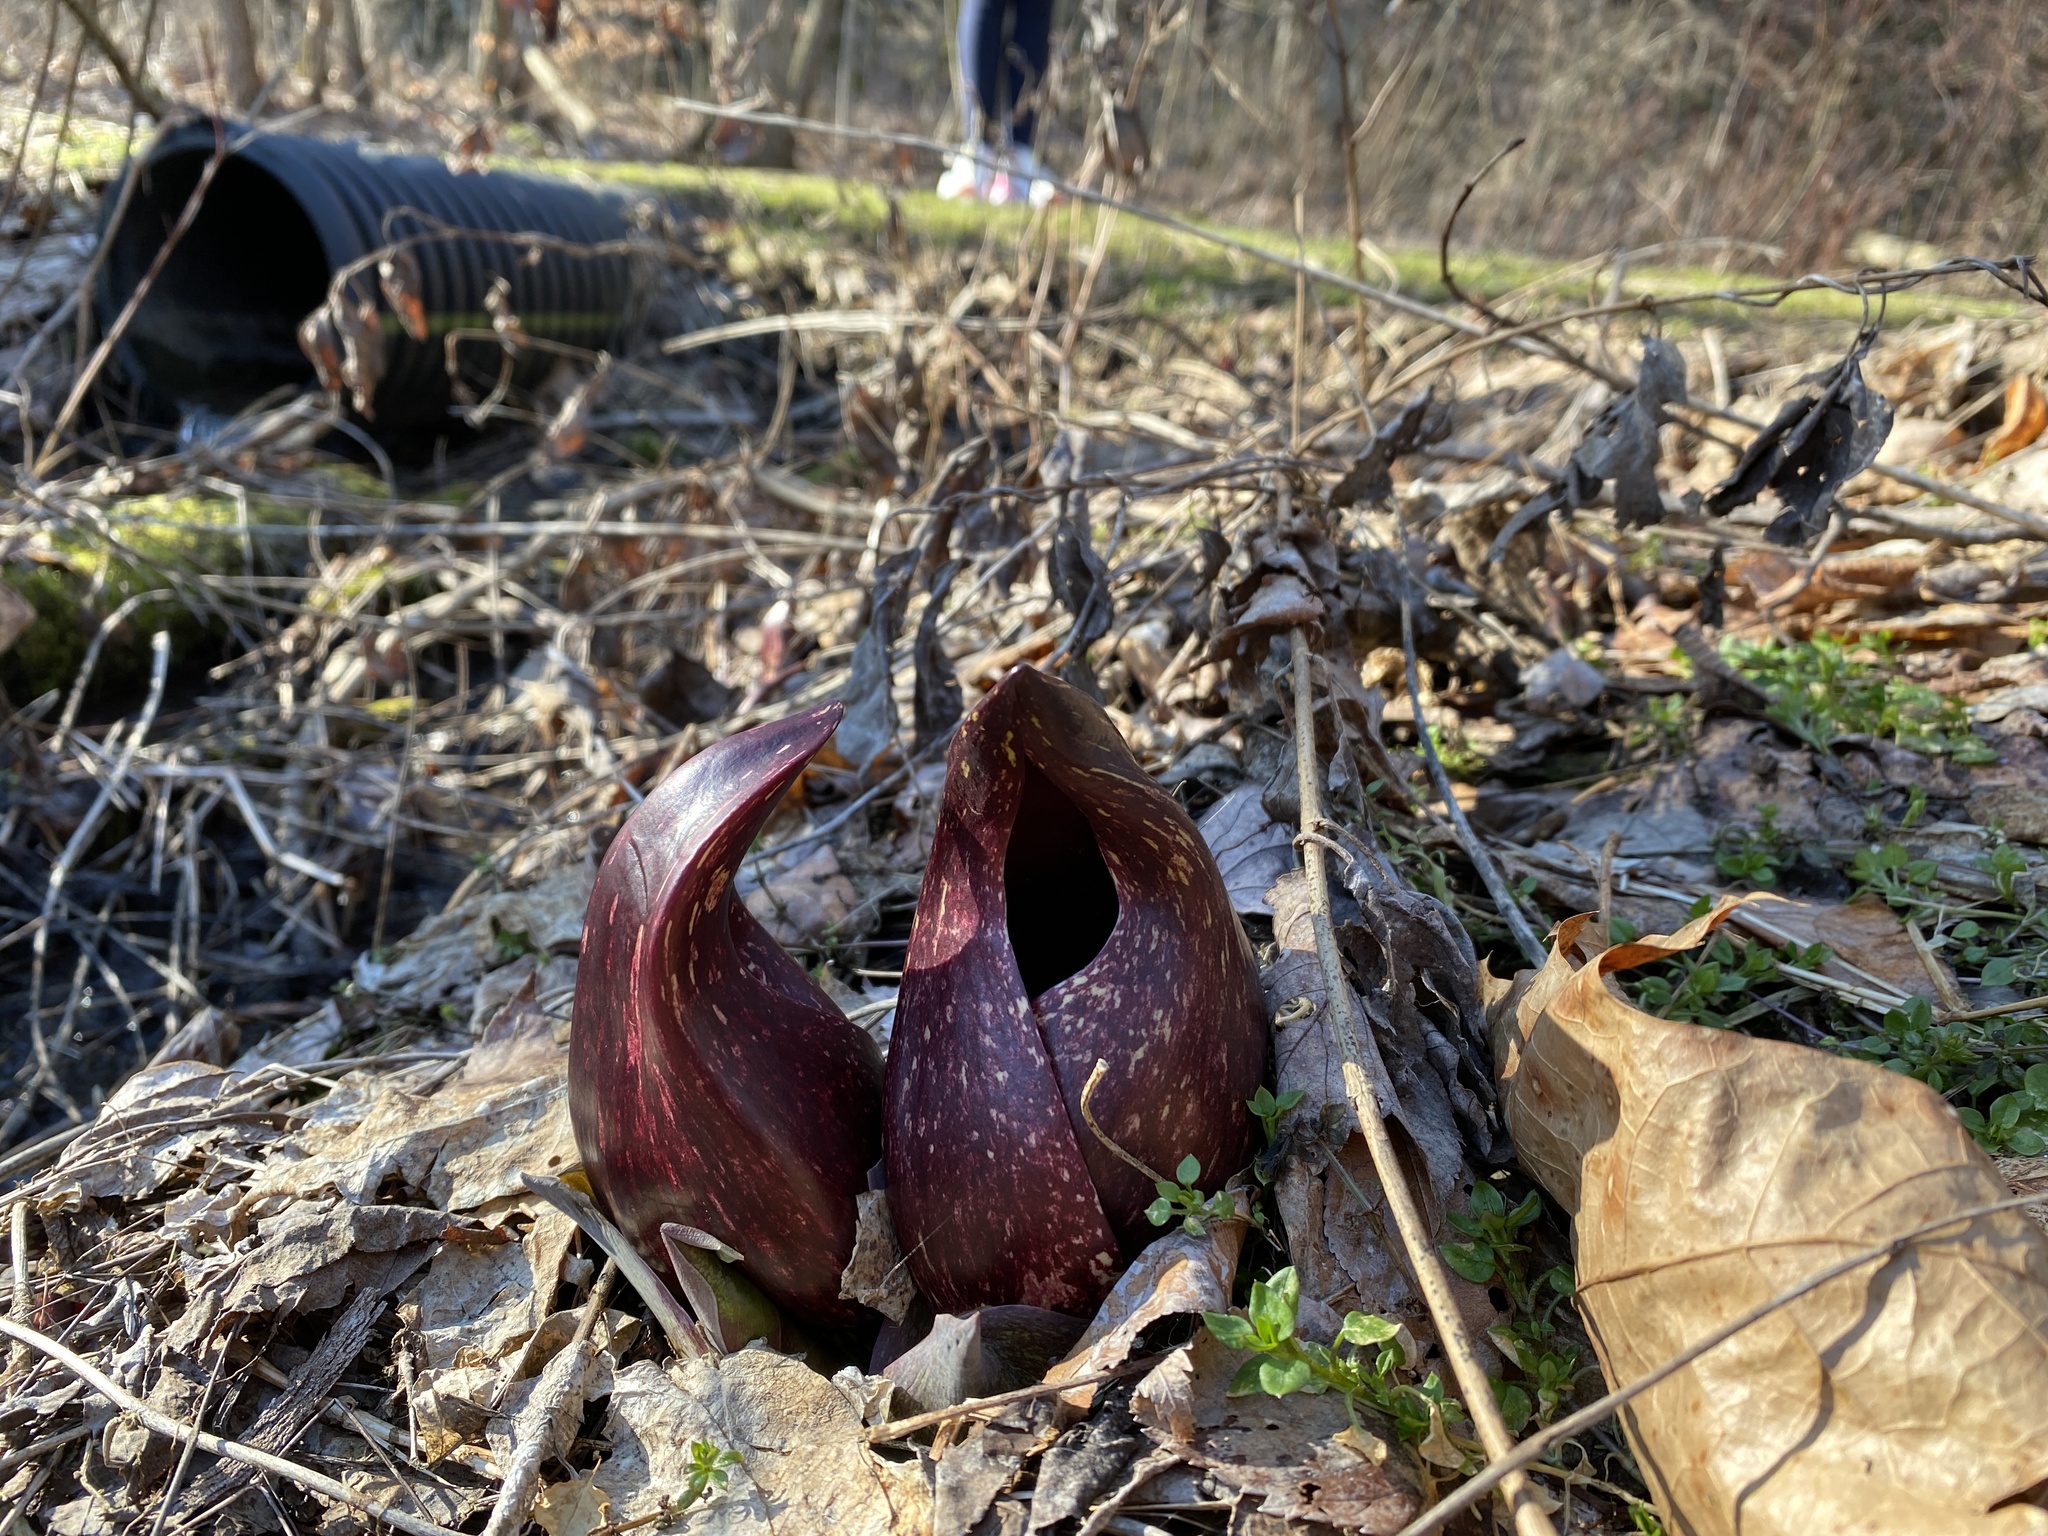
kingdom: Plantae
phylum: Tracheophyta
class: Liliopsida
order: Alismatales
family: Araceae
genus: Symplocarpus
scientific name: Symplocarpus foetidus
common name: Eastern skunk cabbage
